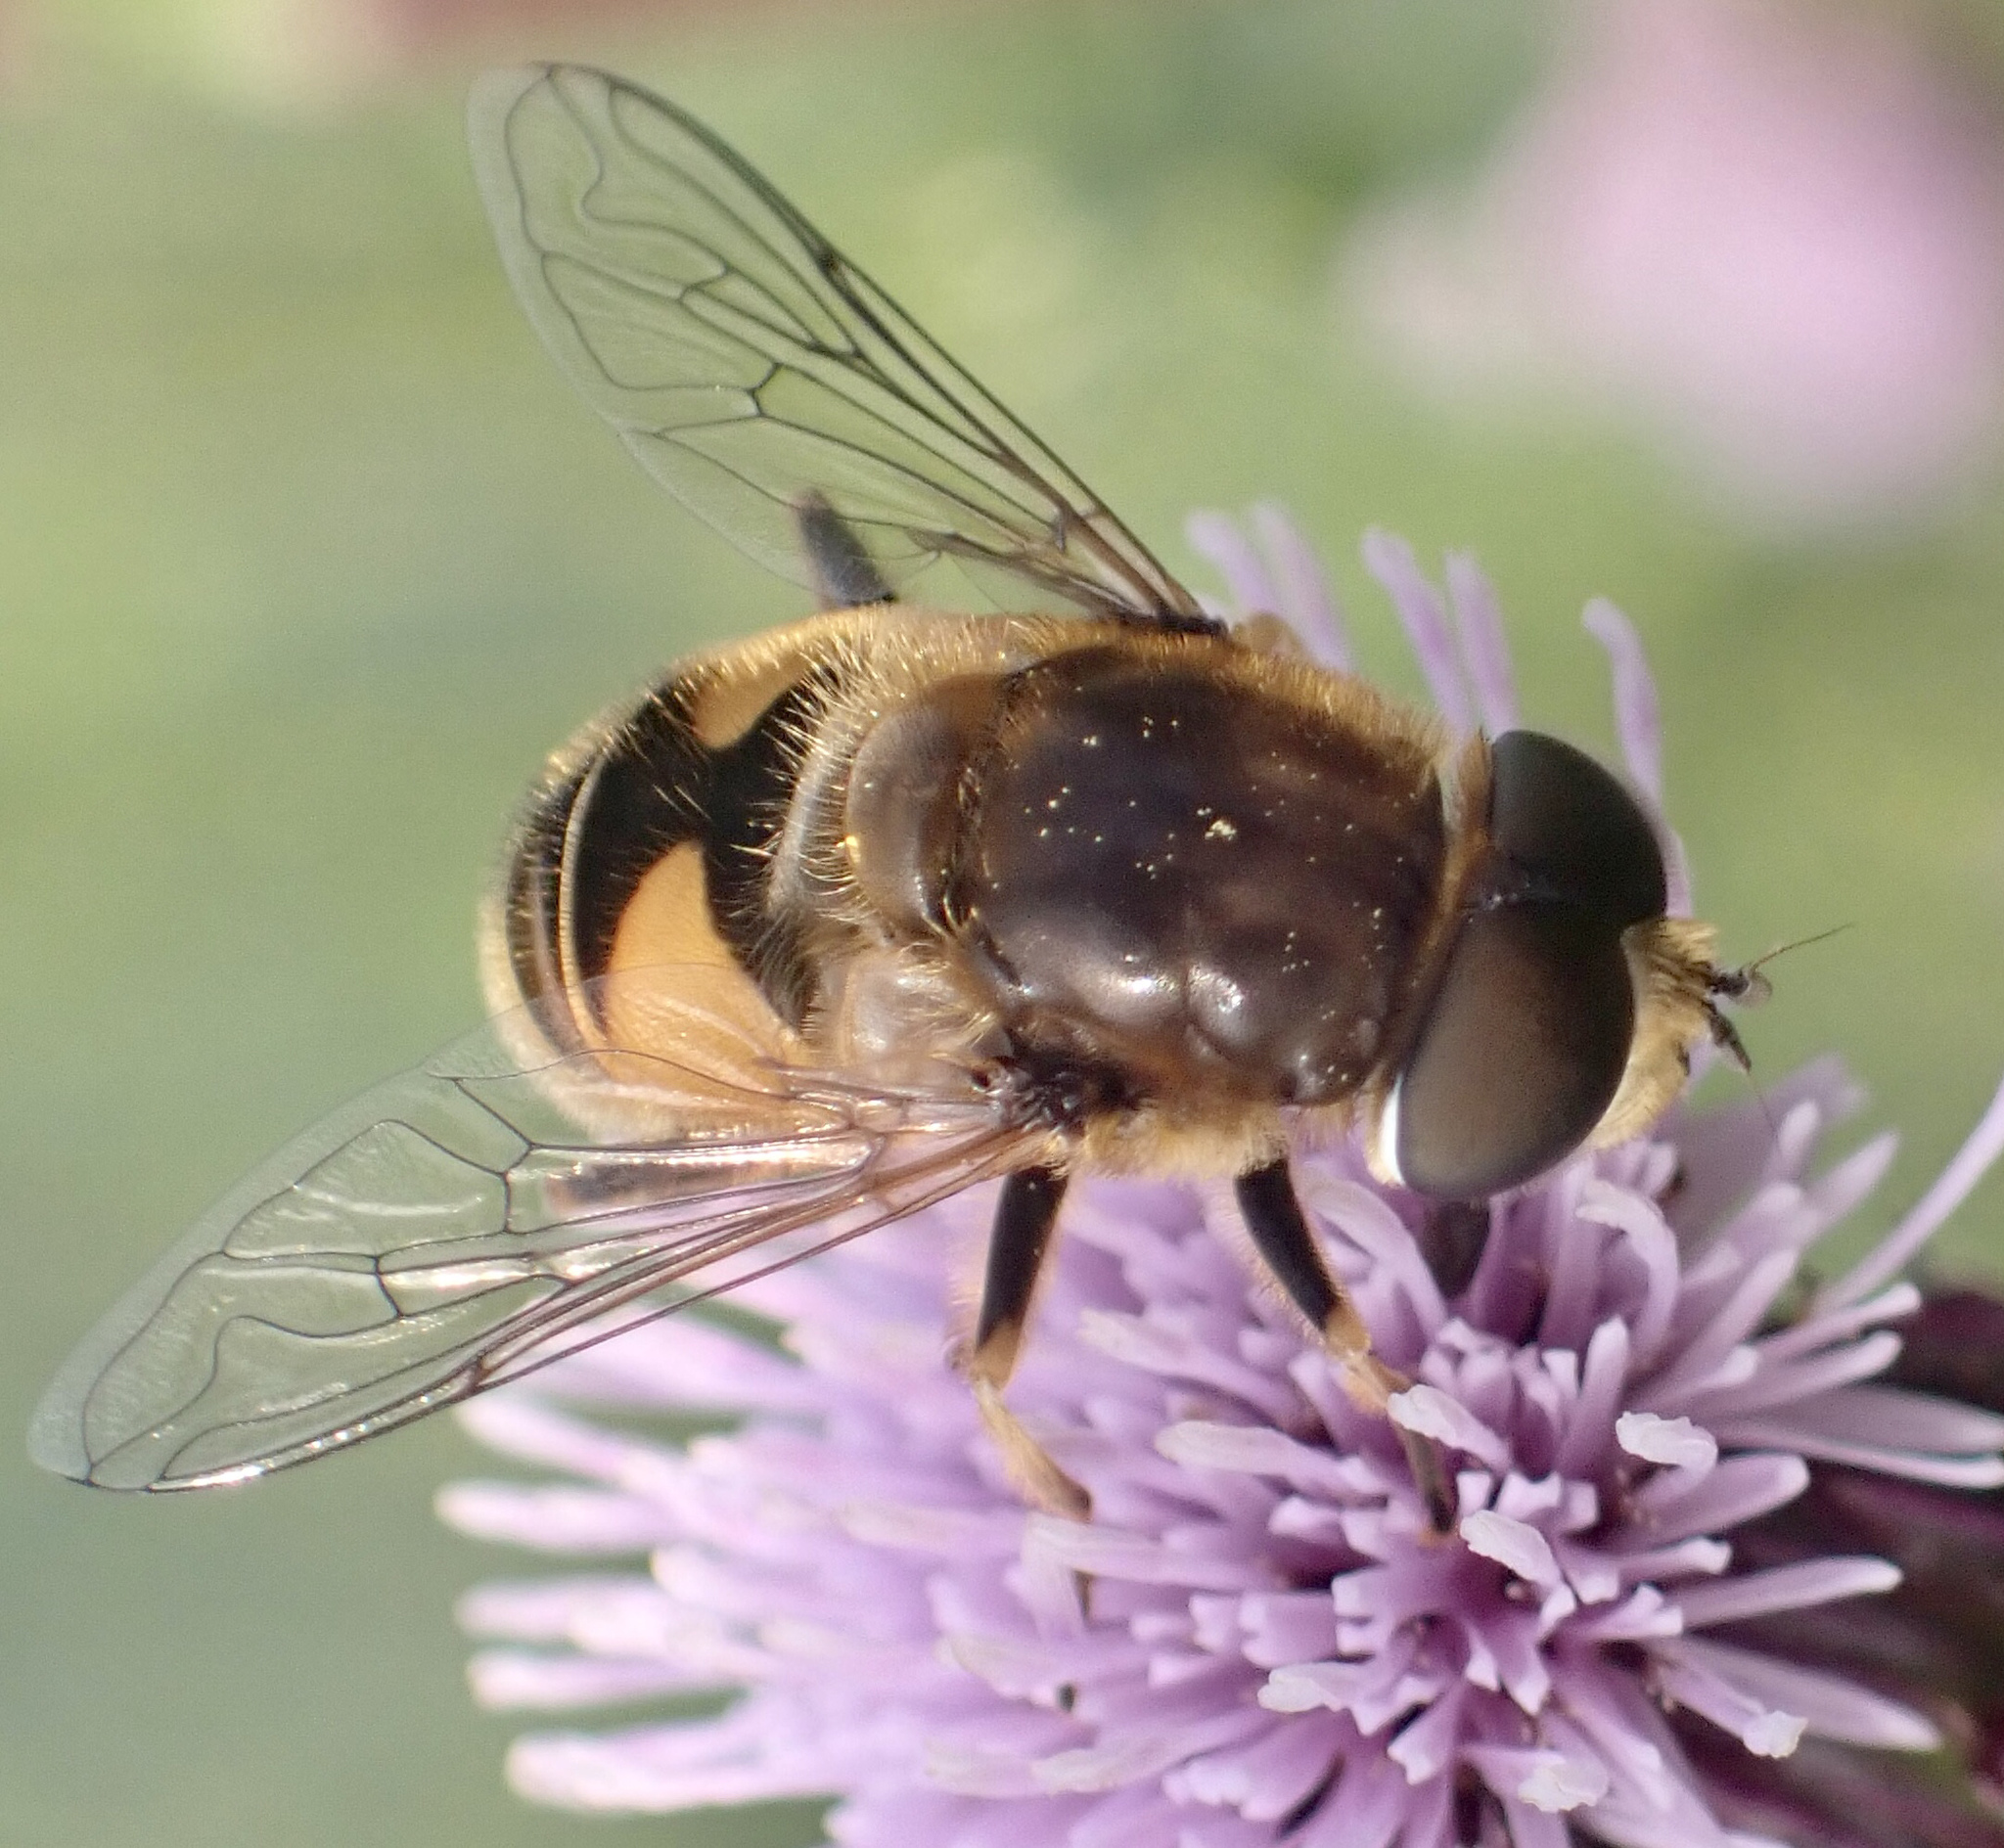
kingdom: Animalia
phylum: Arthropoda
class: Insecta
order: Diptera
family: Syrphidae
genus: Eristalis
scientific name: Eristalis nemorum
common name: Orange-spined drone fly
